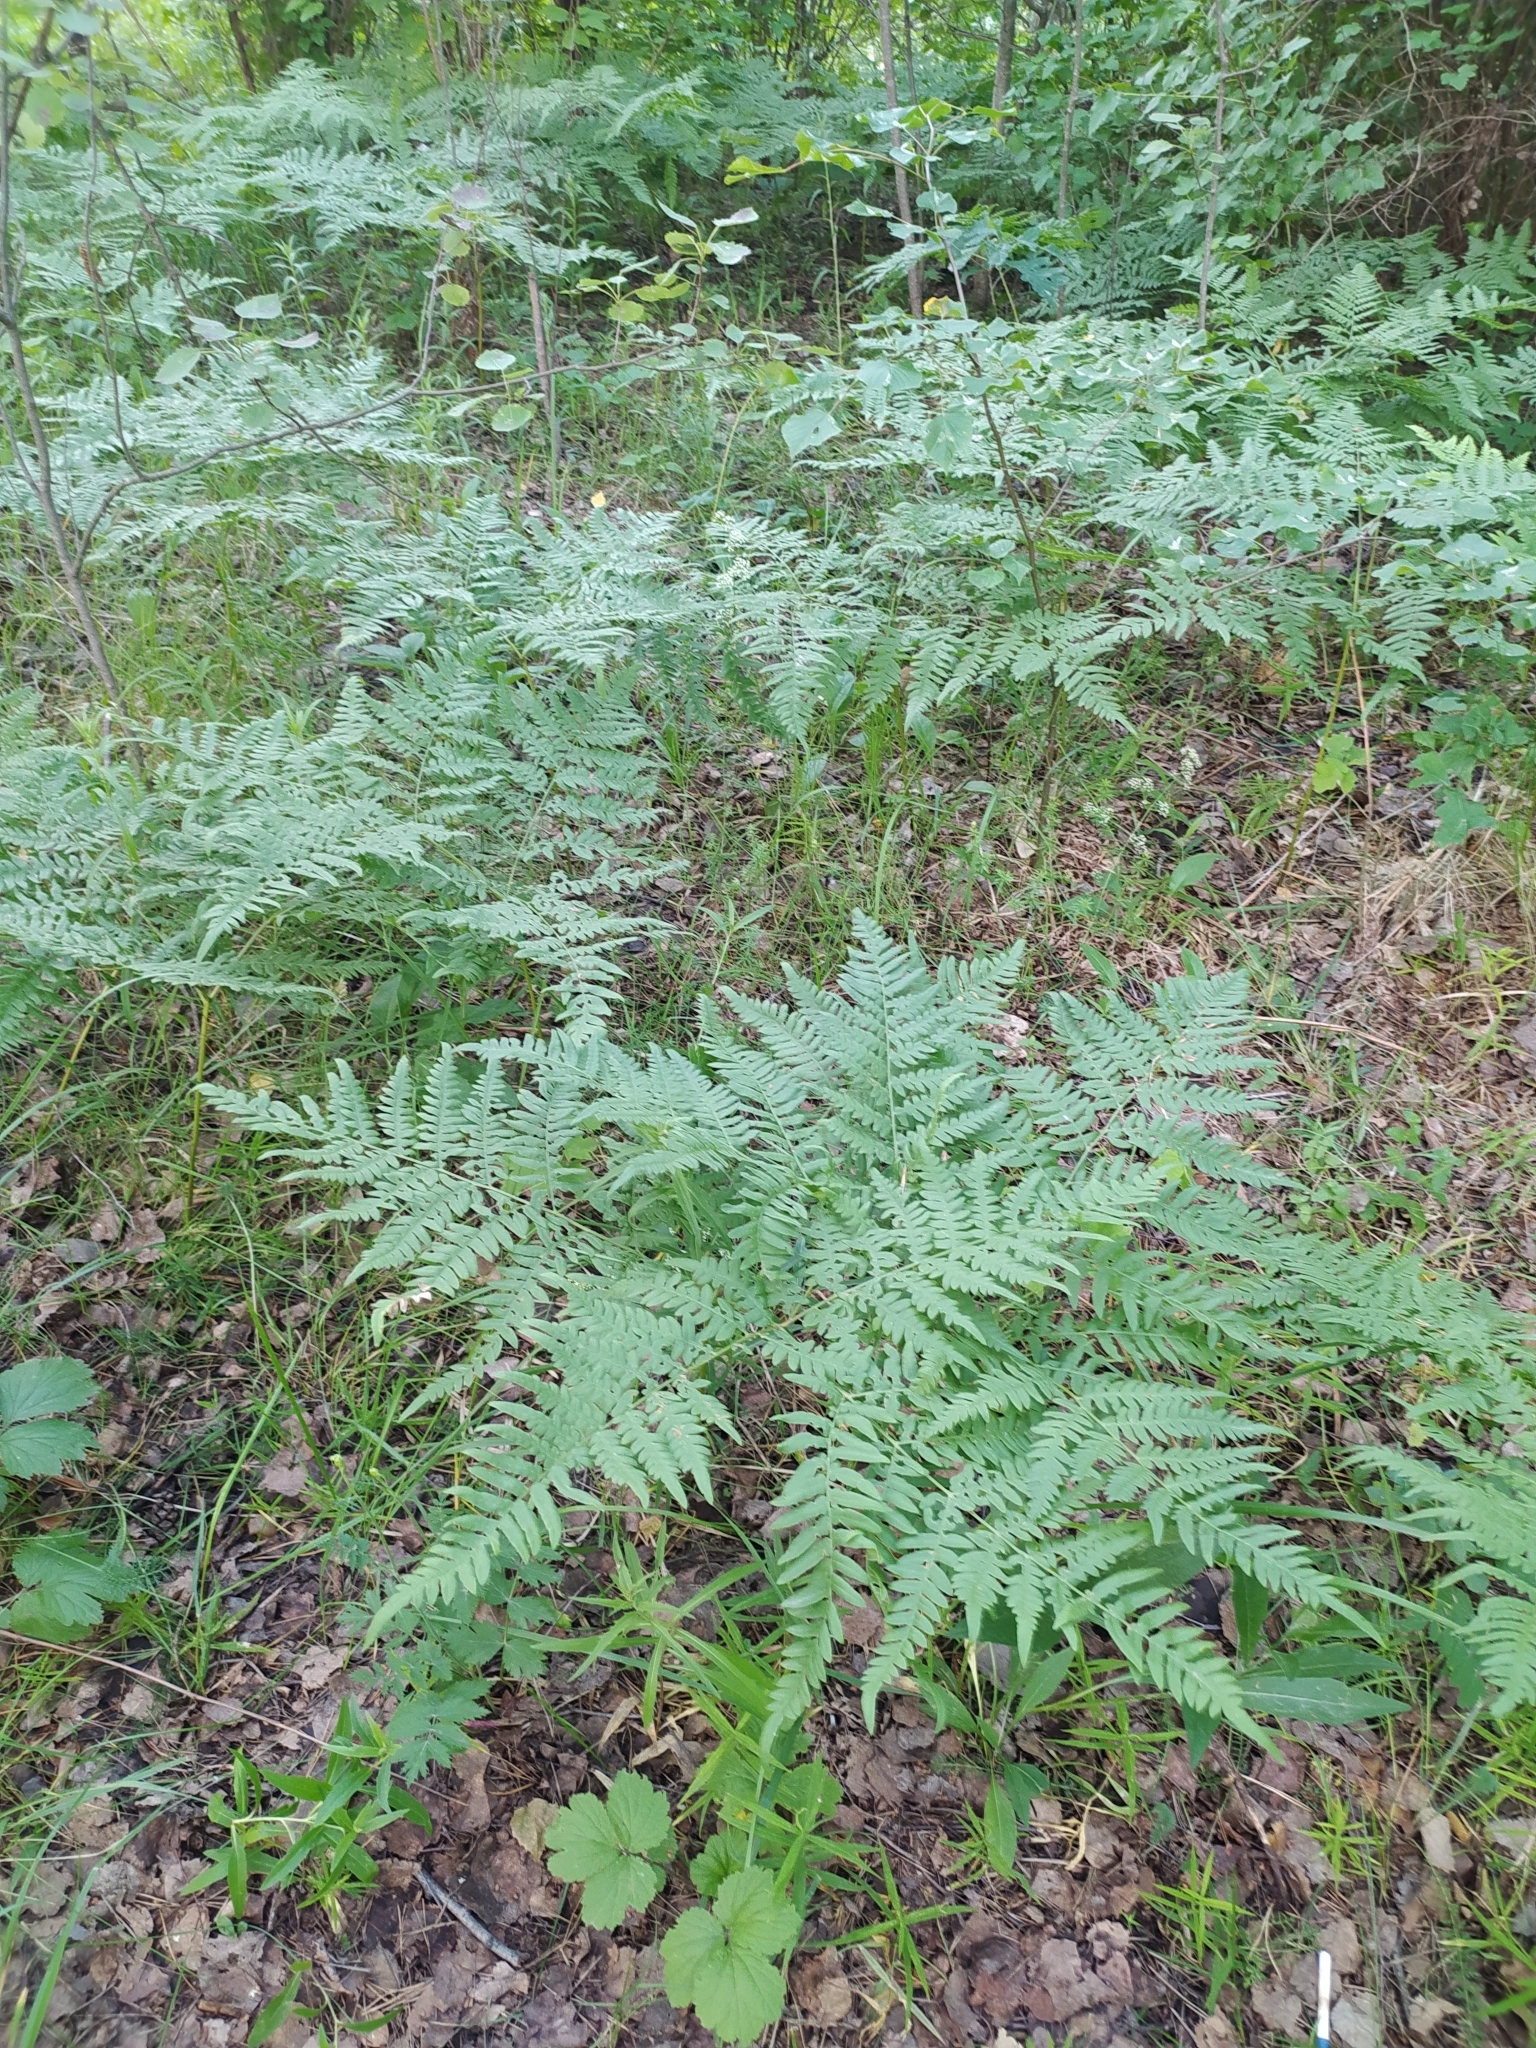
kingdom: Plantae
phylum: Tracheophyta
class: Polypodiopsida
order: Polypodiales
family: Dennstaedtiaceae
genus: Pteridium
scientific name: Pteridium aquilinum
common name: Bracken
